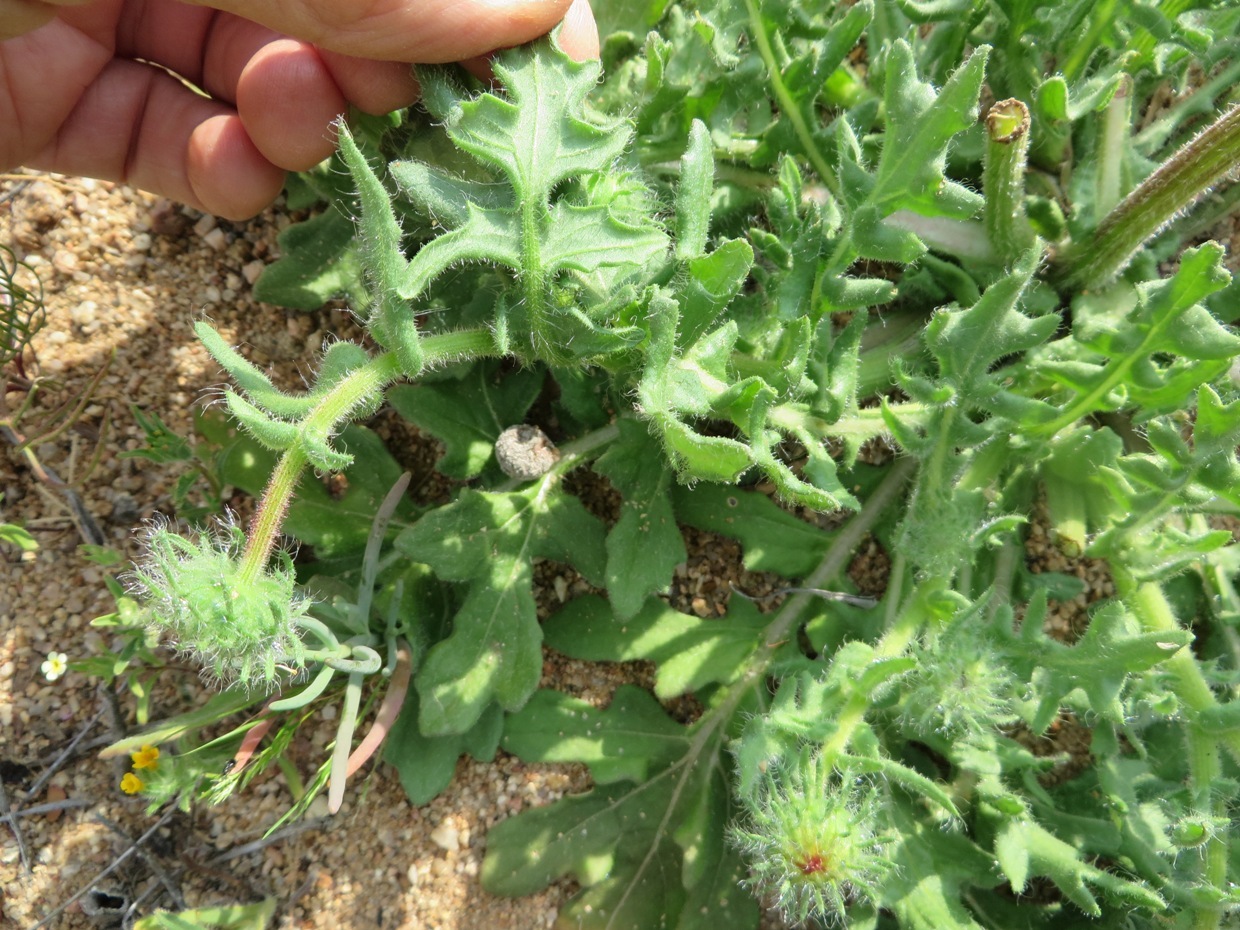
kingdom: Plantae
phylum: Tracheophyta
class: Magnoliopsida
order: Asterales
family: Asteraceae
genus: Arctotis
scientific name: Arctotis fastuosa
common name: Monarch of the veld
